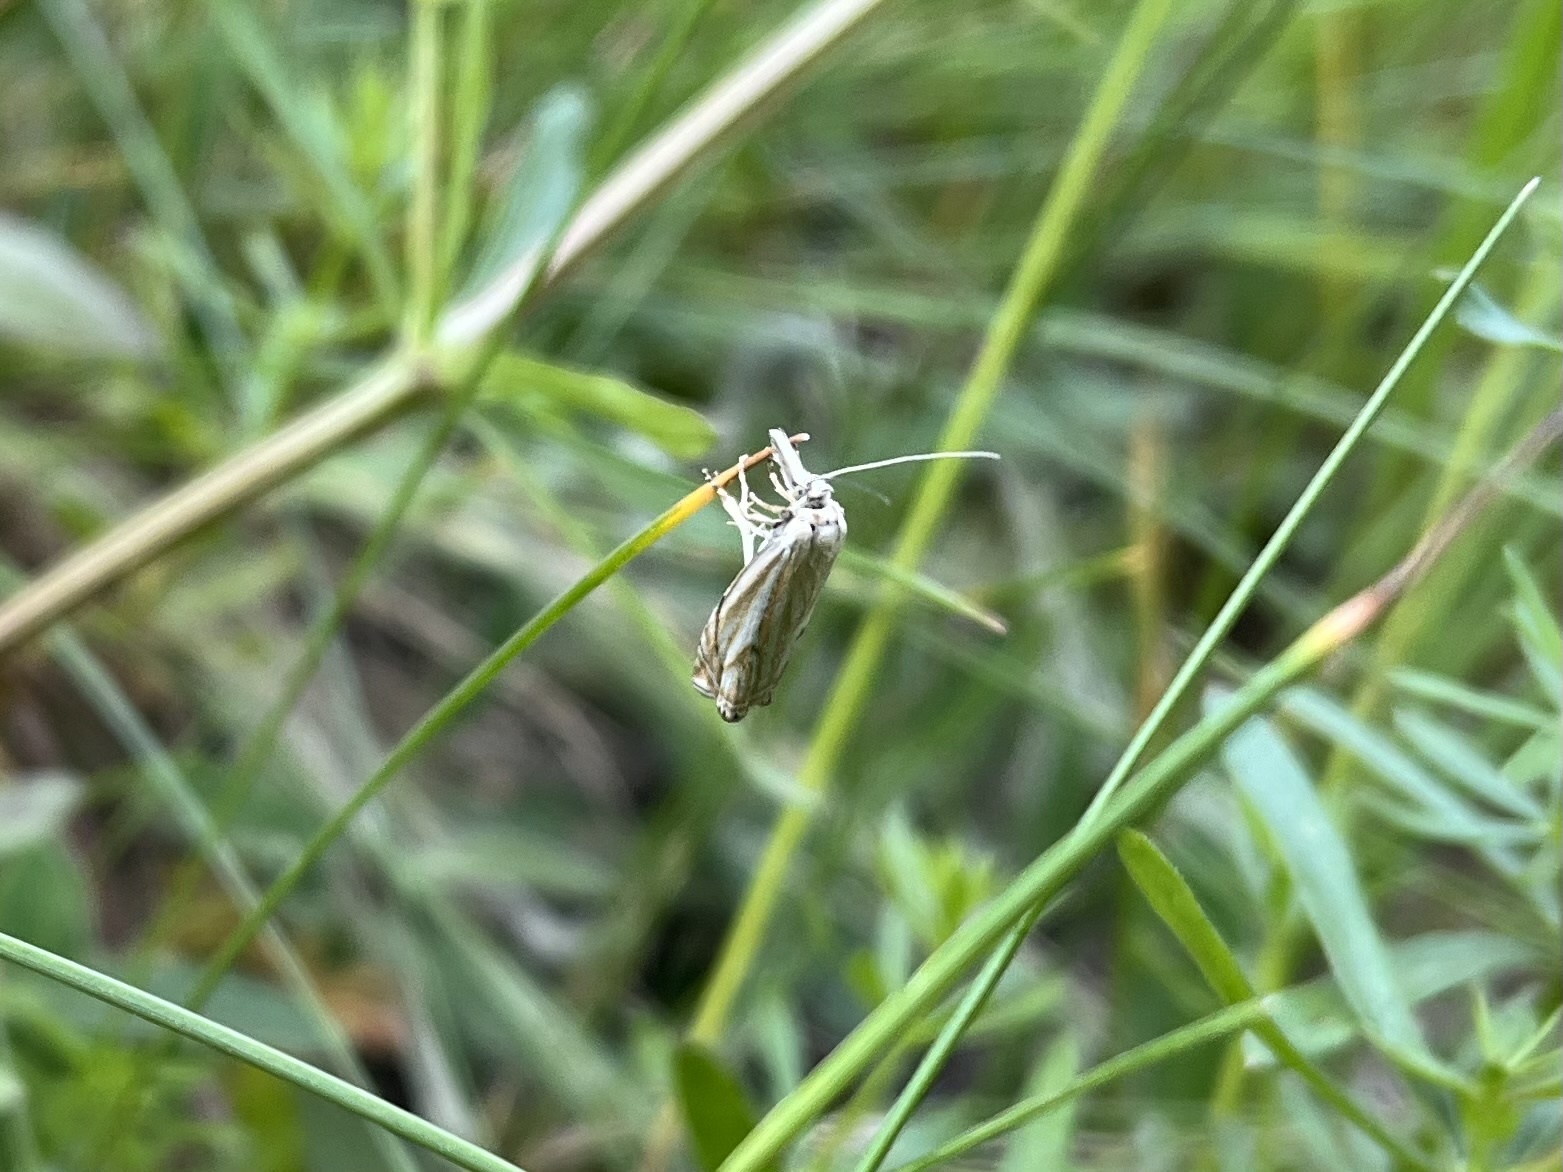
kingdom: Animalia
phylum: Arthropoda
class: Insecta
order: Lepidoptera
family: Crambidae
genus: Crambus
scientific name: Crambus nemorella
